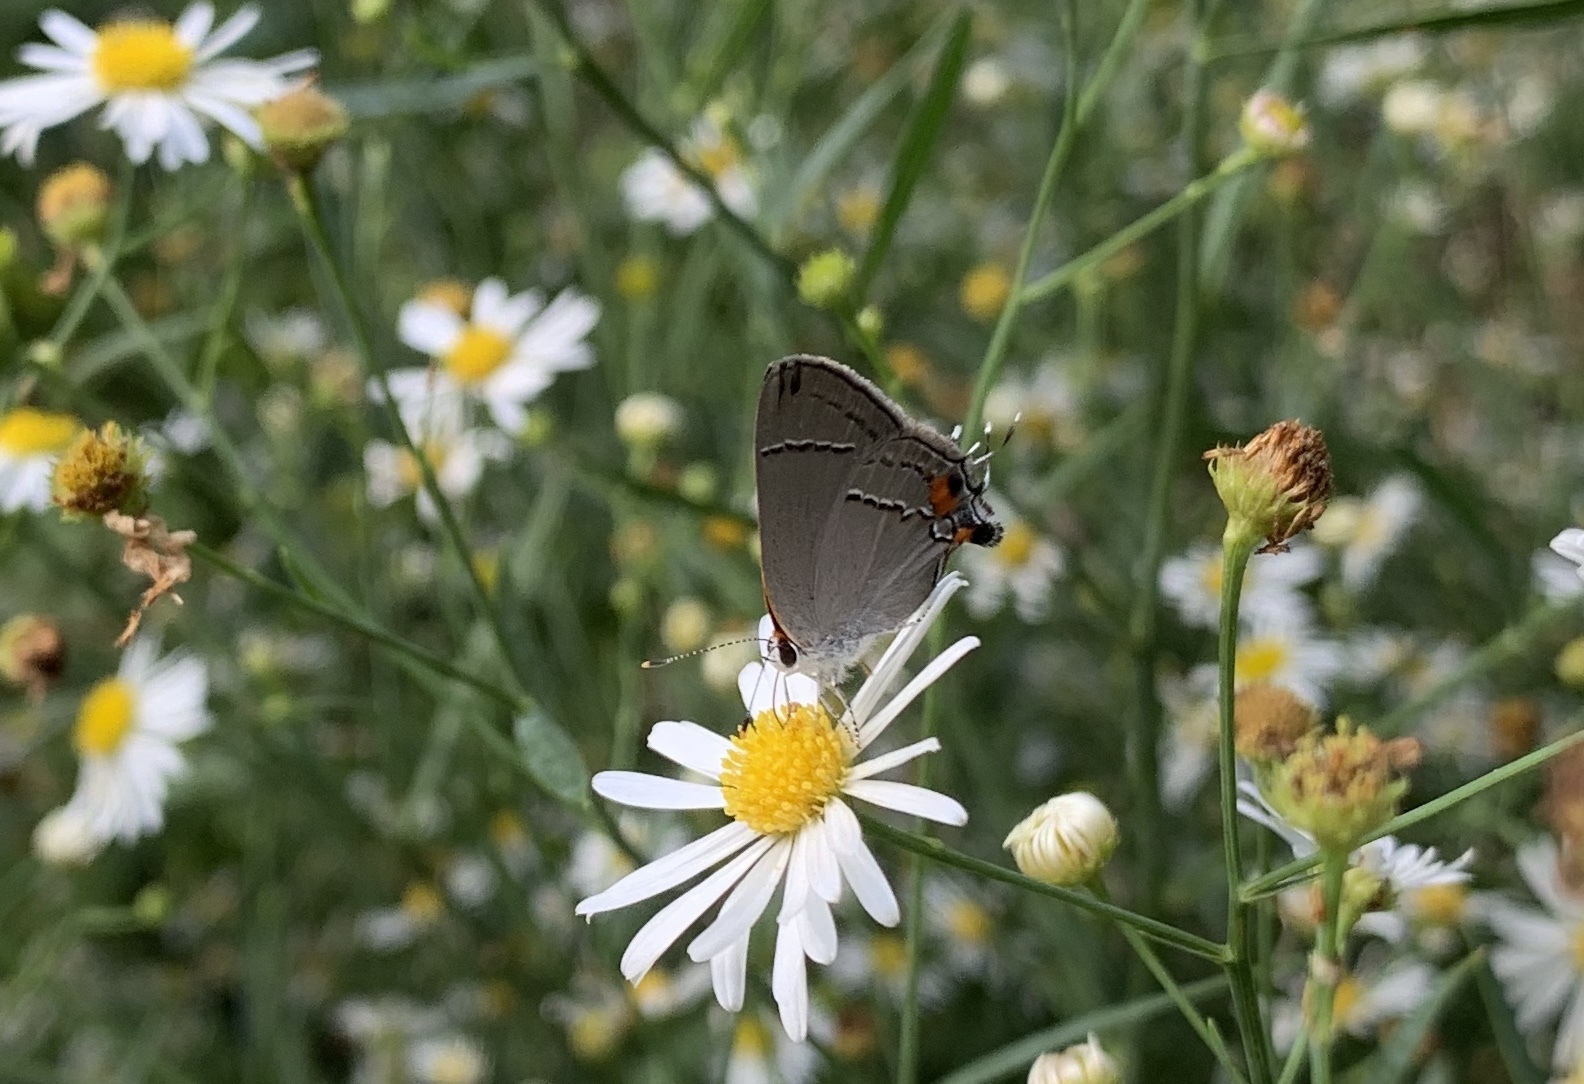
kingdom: Animalia
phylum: Arthropoda
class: Insecta
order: Lepidoptera
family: Lycaenidae
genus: Strymon
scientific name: Strymon melinus
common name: Gray hairstreak
